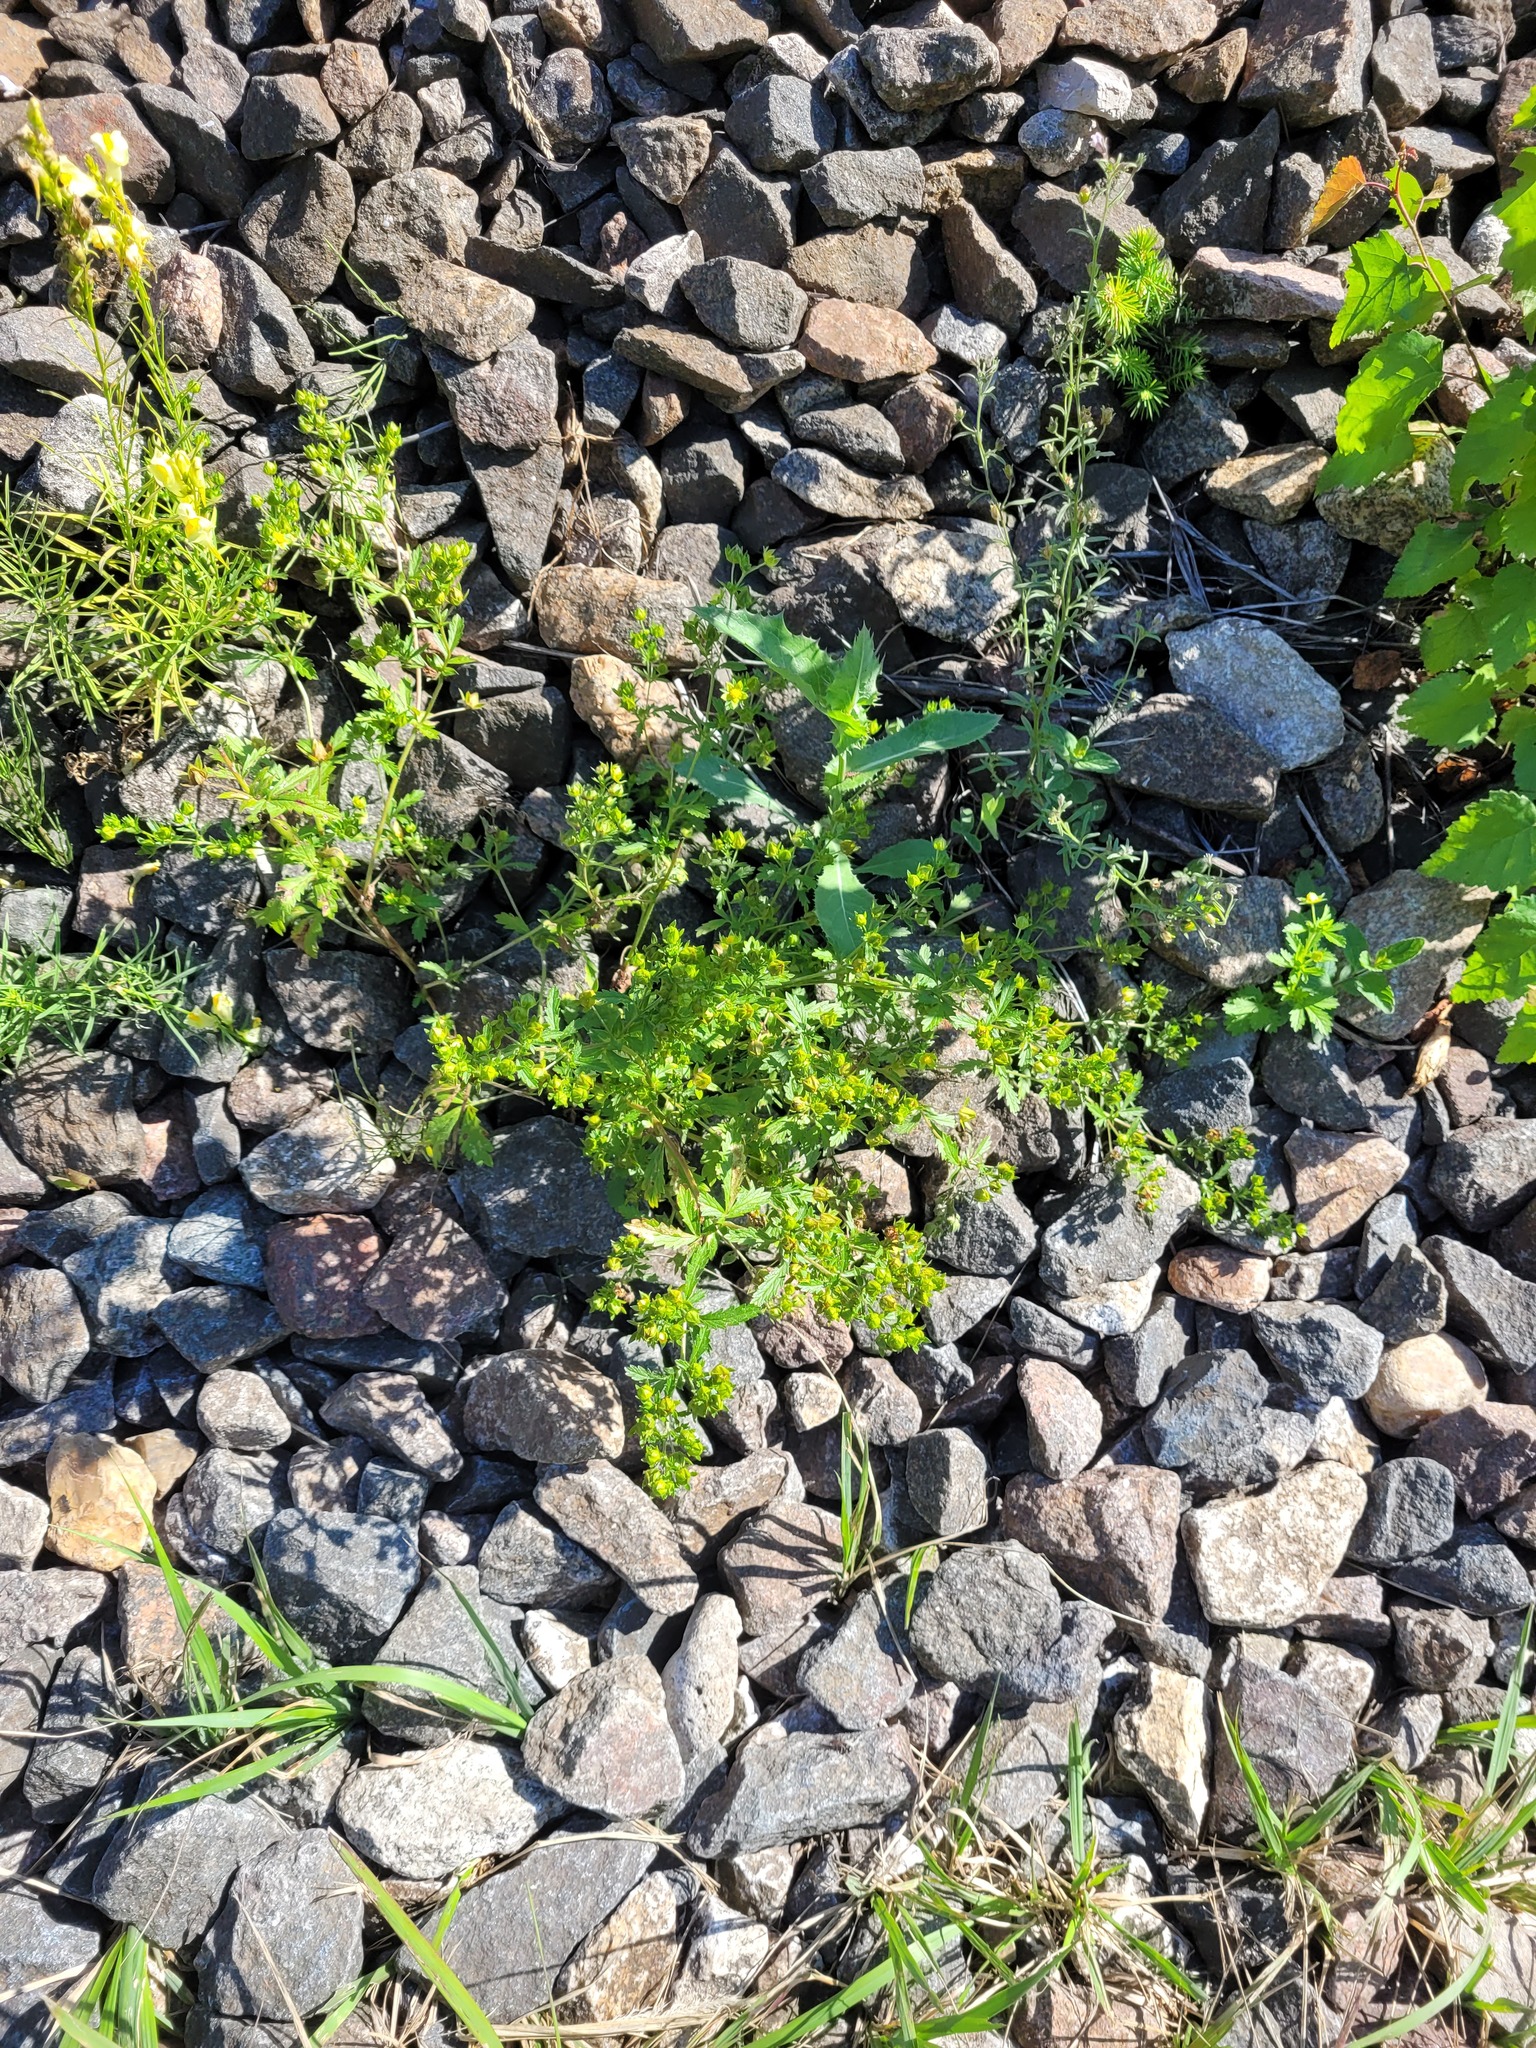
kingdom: Plantae
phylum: Tracheophyta
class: Magnoliopsida
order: Rosales
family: Rosaceae
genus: Potentilla
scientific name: Potentilla norvegica
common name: Ternate-leaved cinquefoil
